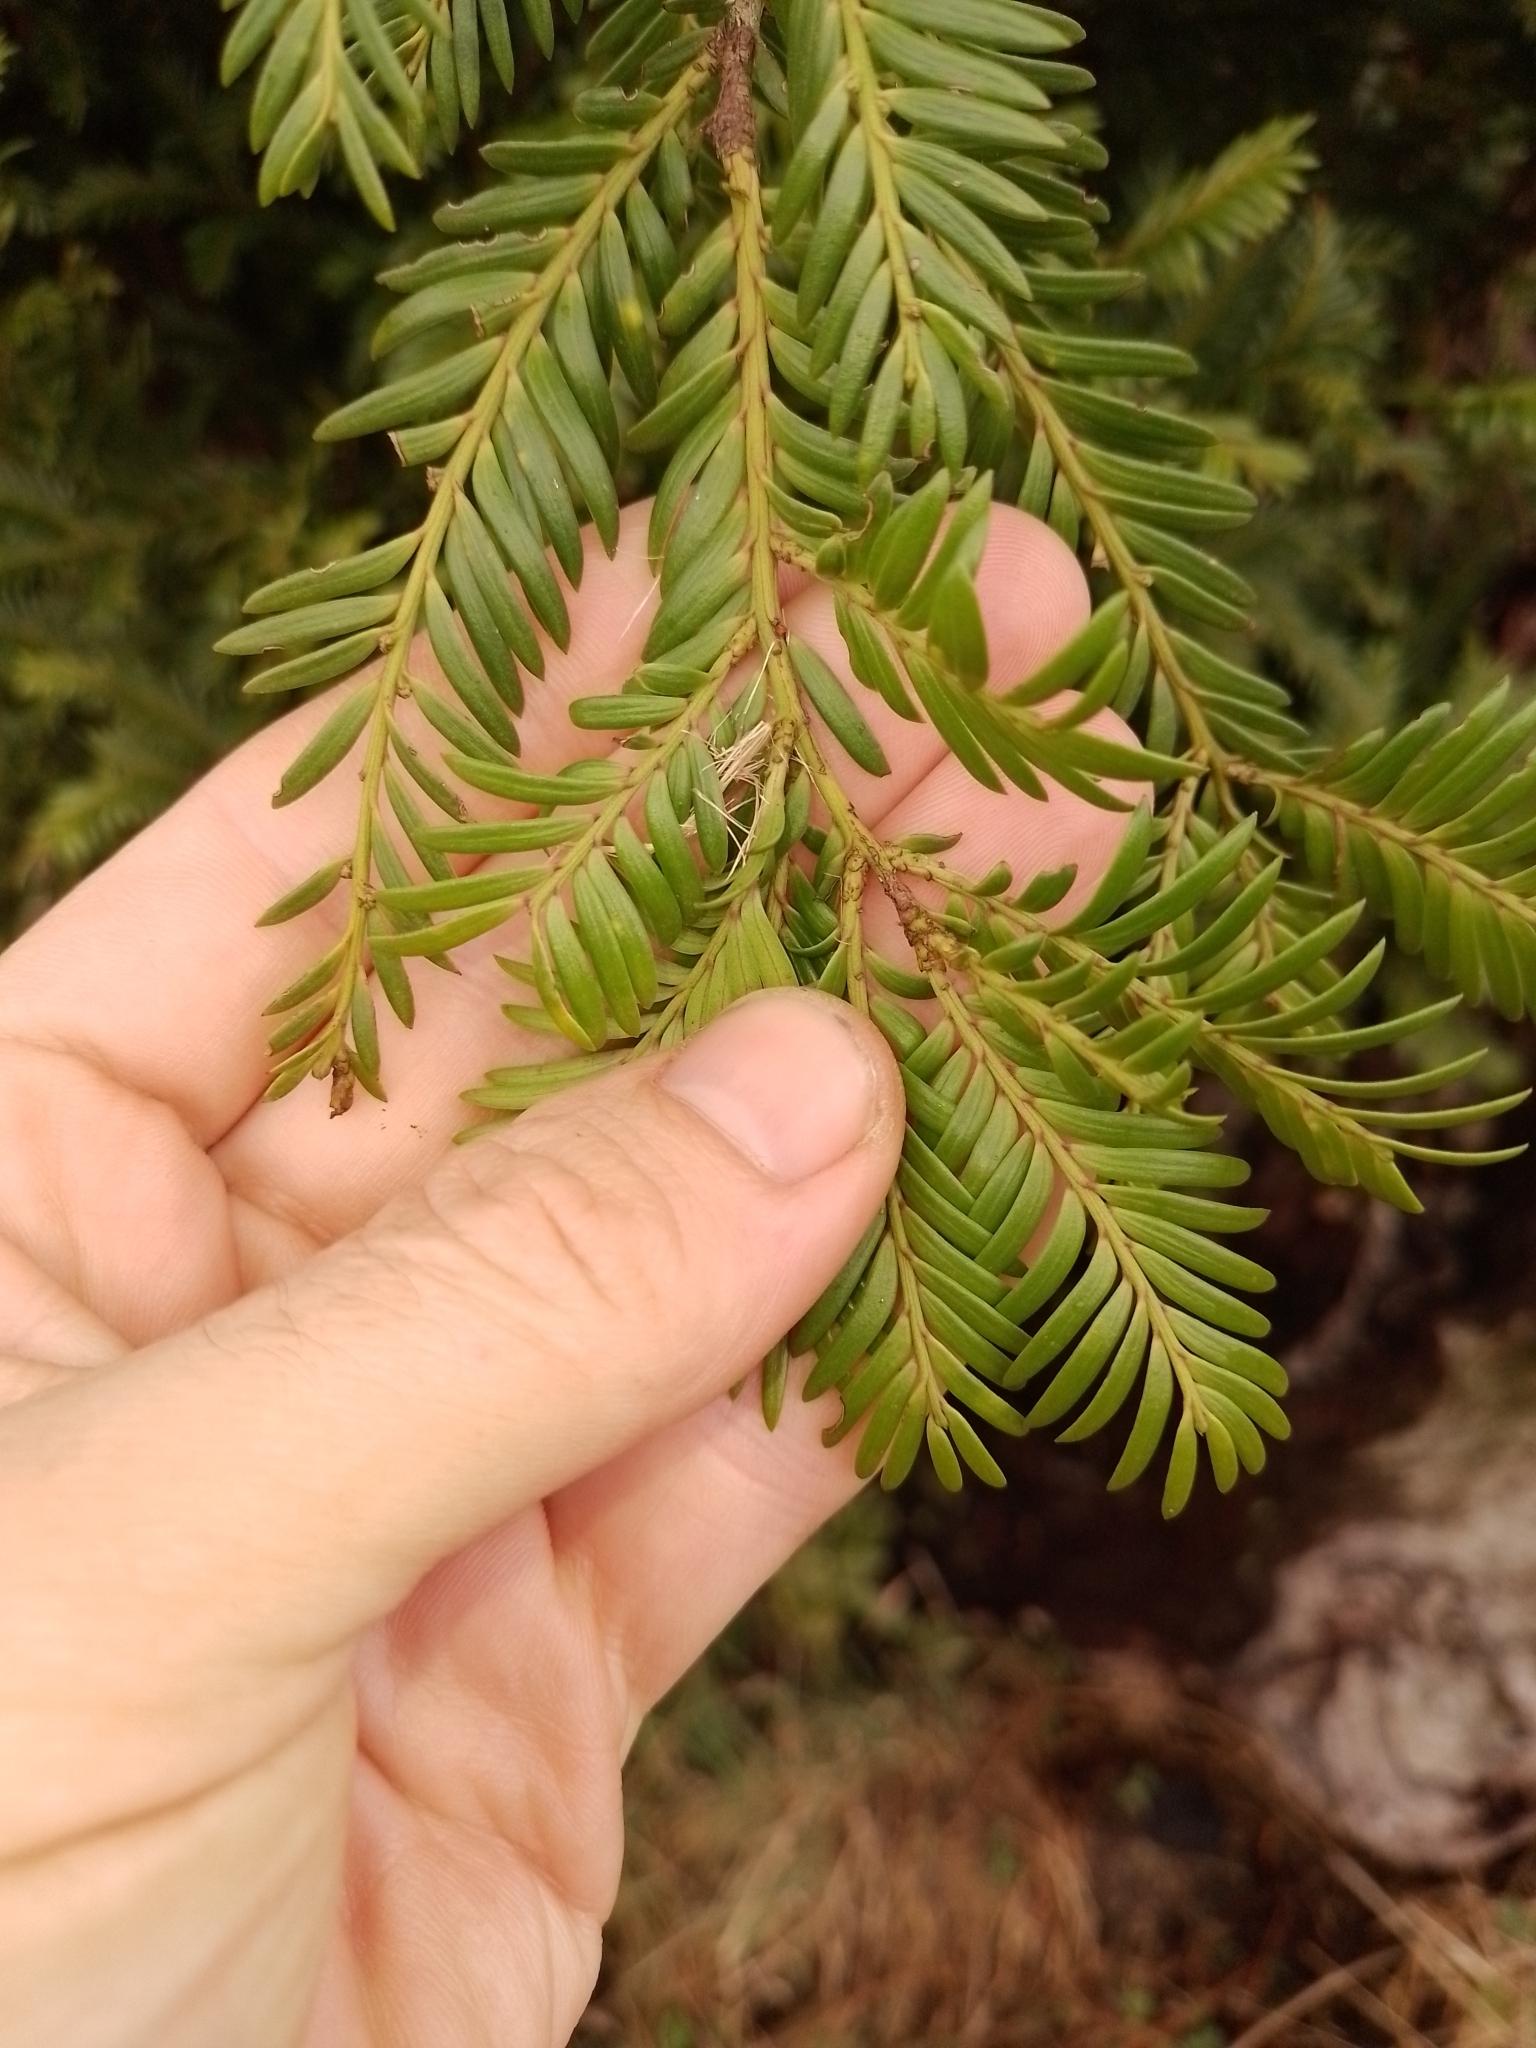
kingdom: Plantae
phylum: Tracheophyta
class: Pinopsida
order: Pinales
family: Podocarpaceae
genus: Prumnopitys
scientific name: Prumnopitys ferruginea
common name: Brown pine
